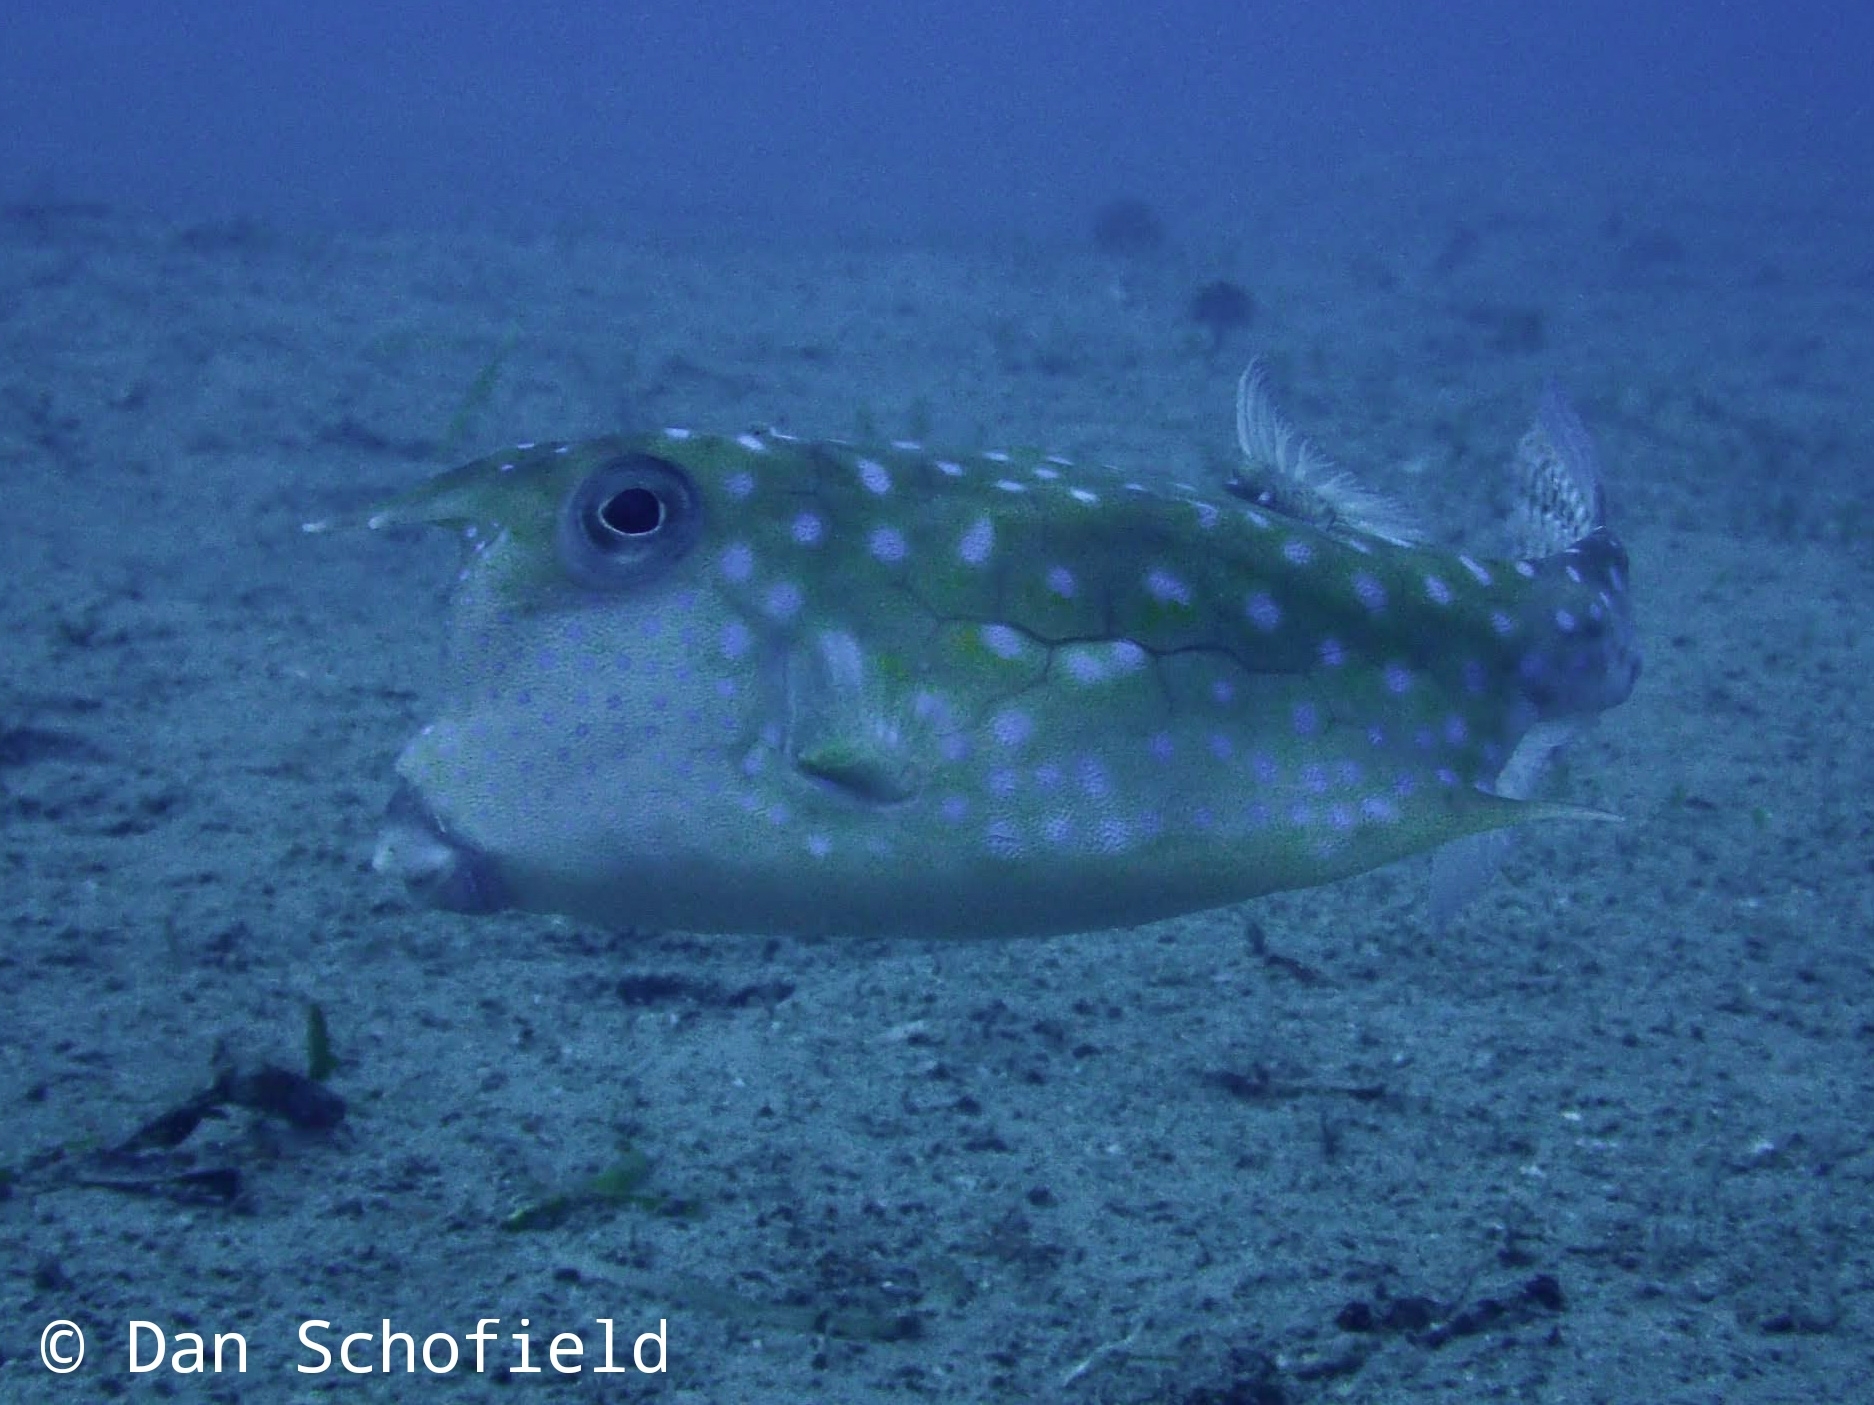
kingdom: Animalia
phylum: Chordata
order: Tetraodontiformes
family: Ostraciidae
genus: Lactoria
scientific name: Lactoria cornuta
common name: Longhorn cowfish
